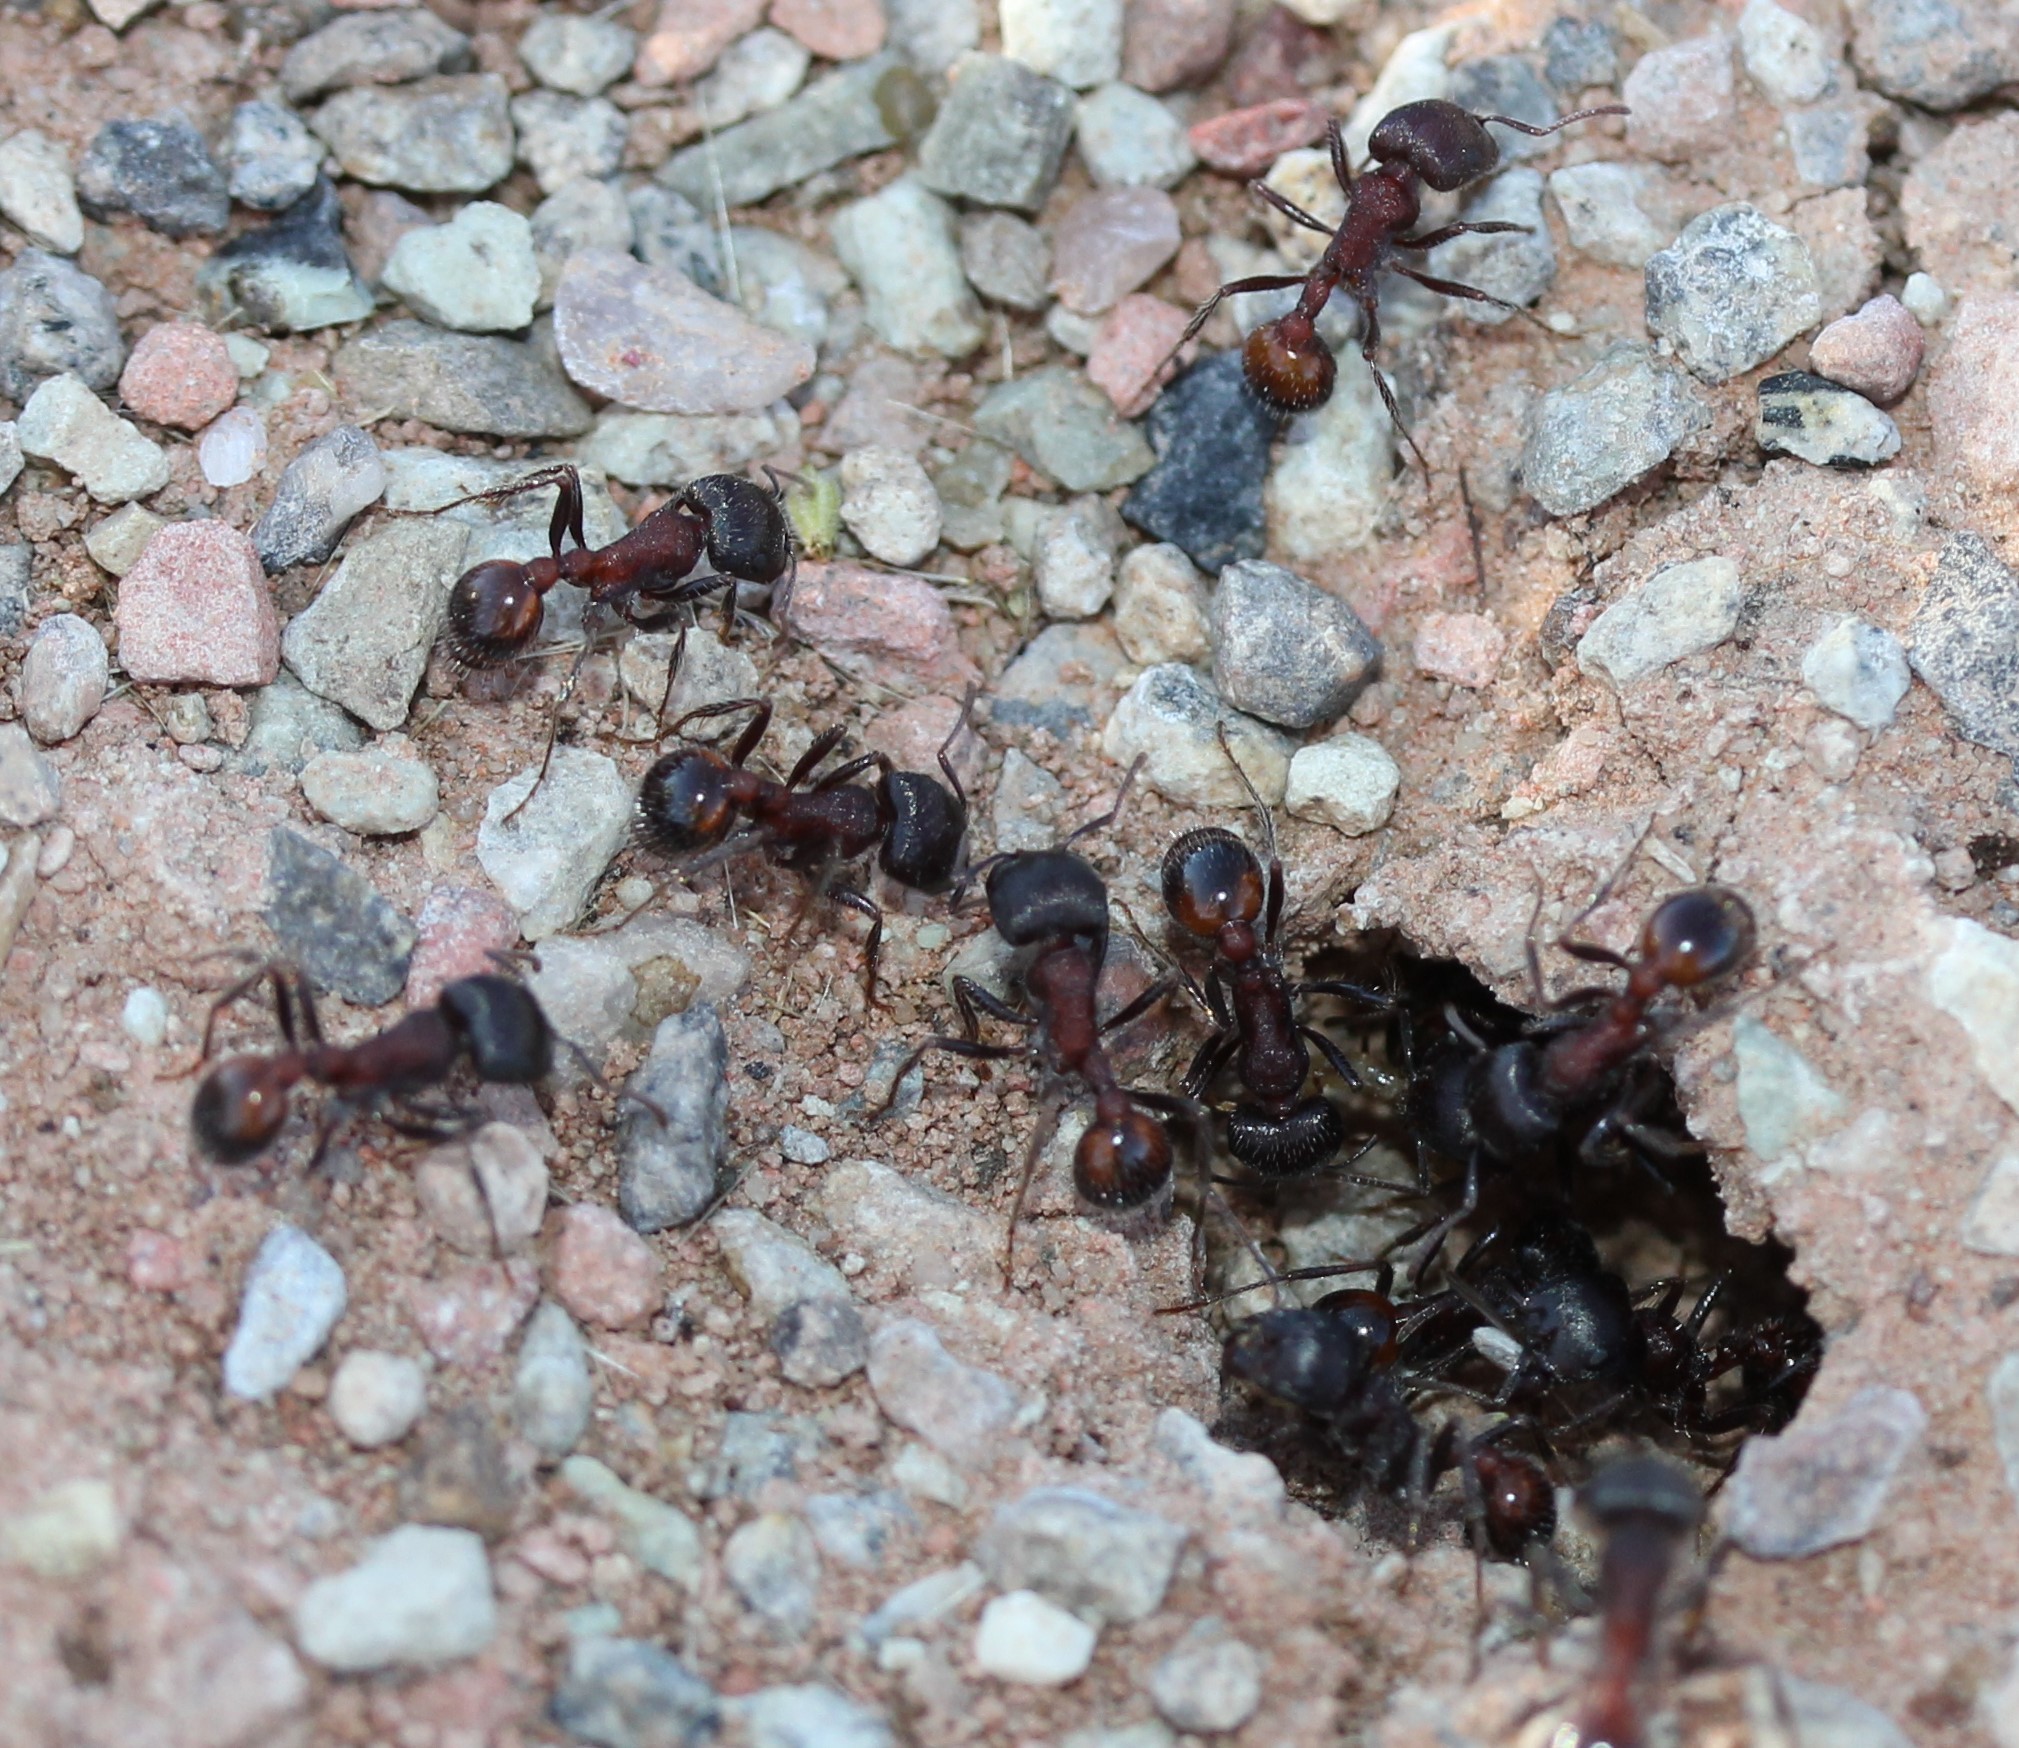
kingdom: Animalia
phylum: Arthropoda
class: Insecta
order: Hymenoptera
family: Formicidae
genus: Pogonomyrmex
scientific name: Pogonomyrmex rugosus
